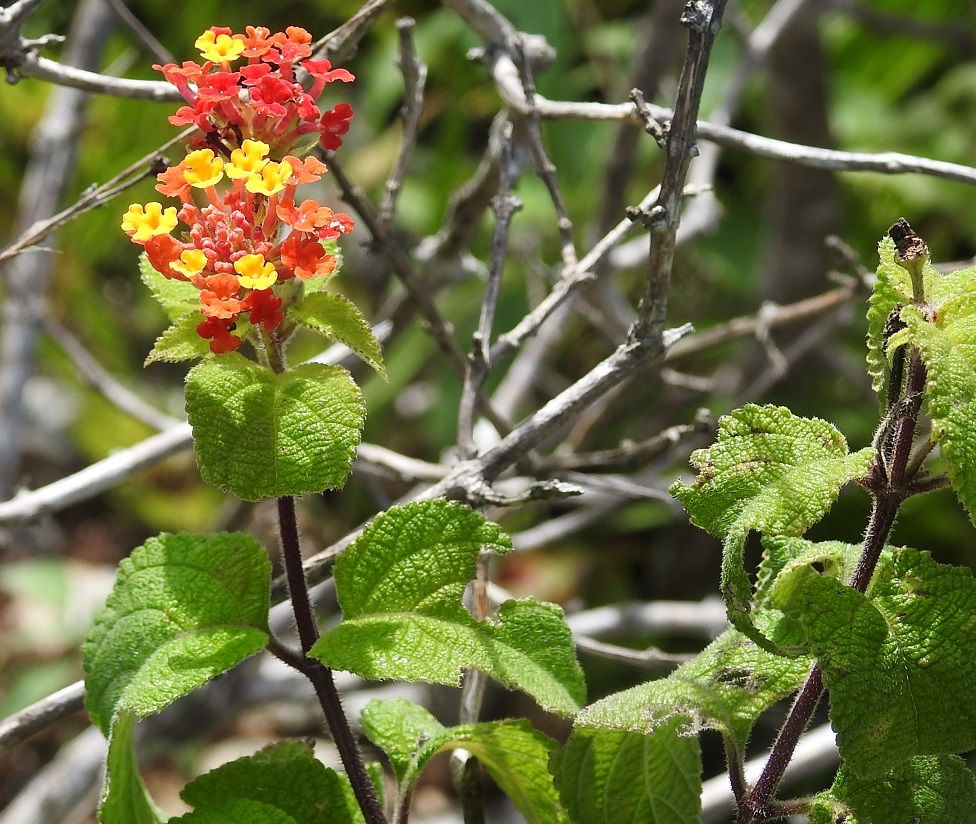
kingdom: Plantae
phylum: Tracheophyta
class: Magnoliopsida
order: Lamiales
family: Verbenaceae
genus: Lantana
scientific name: Lantana camara
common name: Lantana
